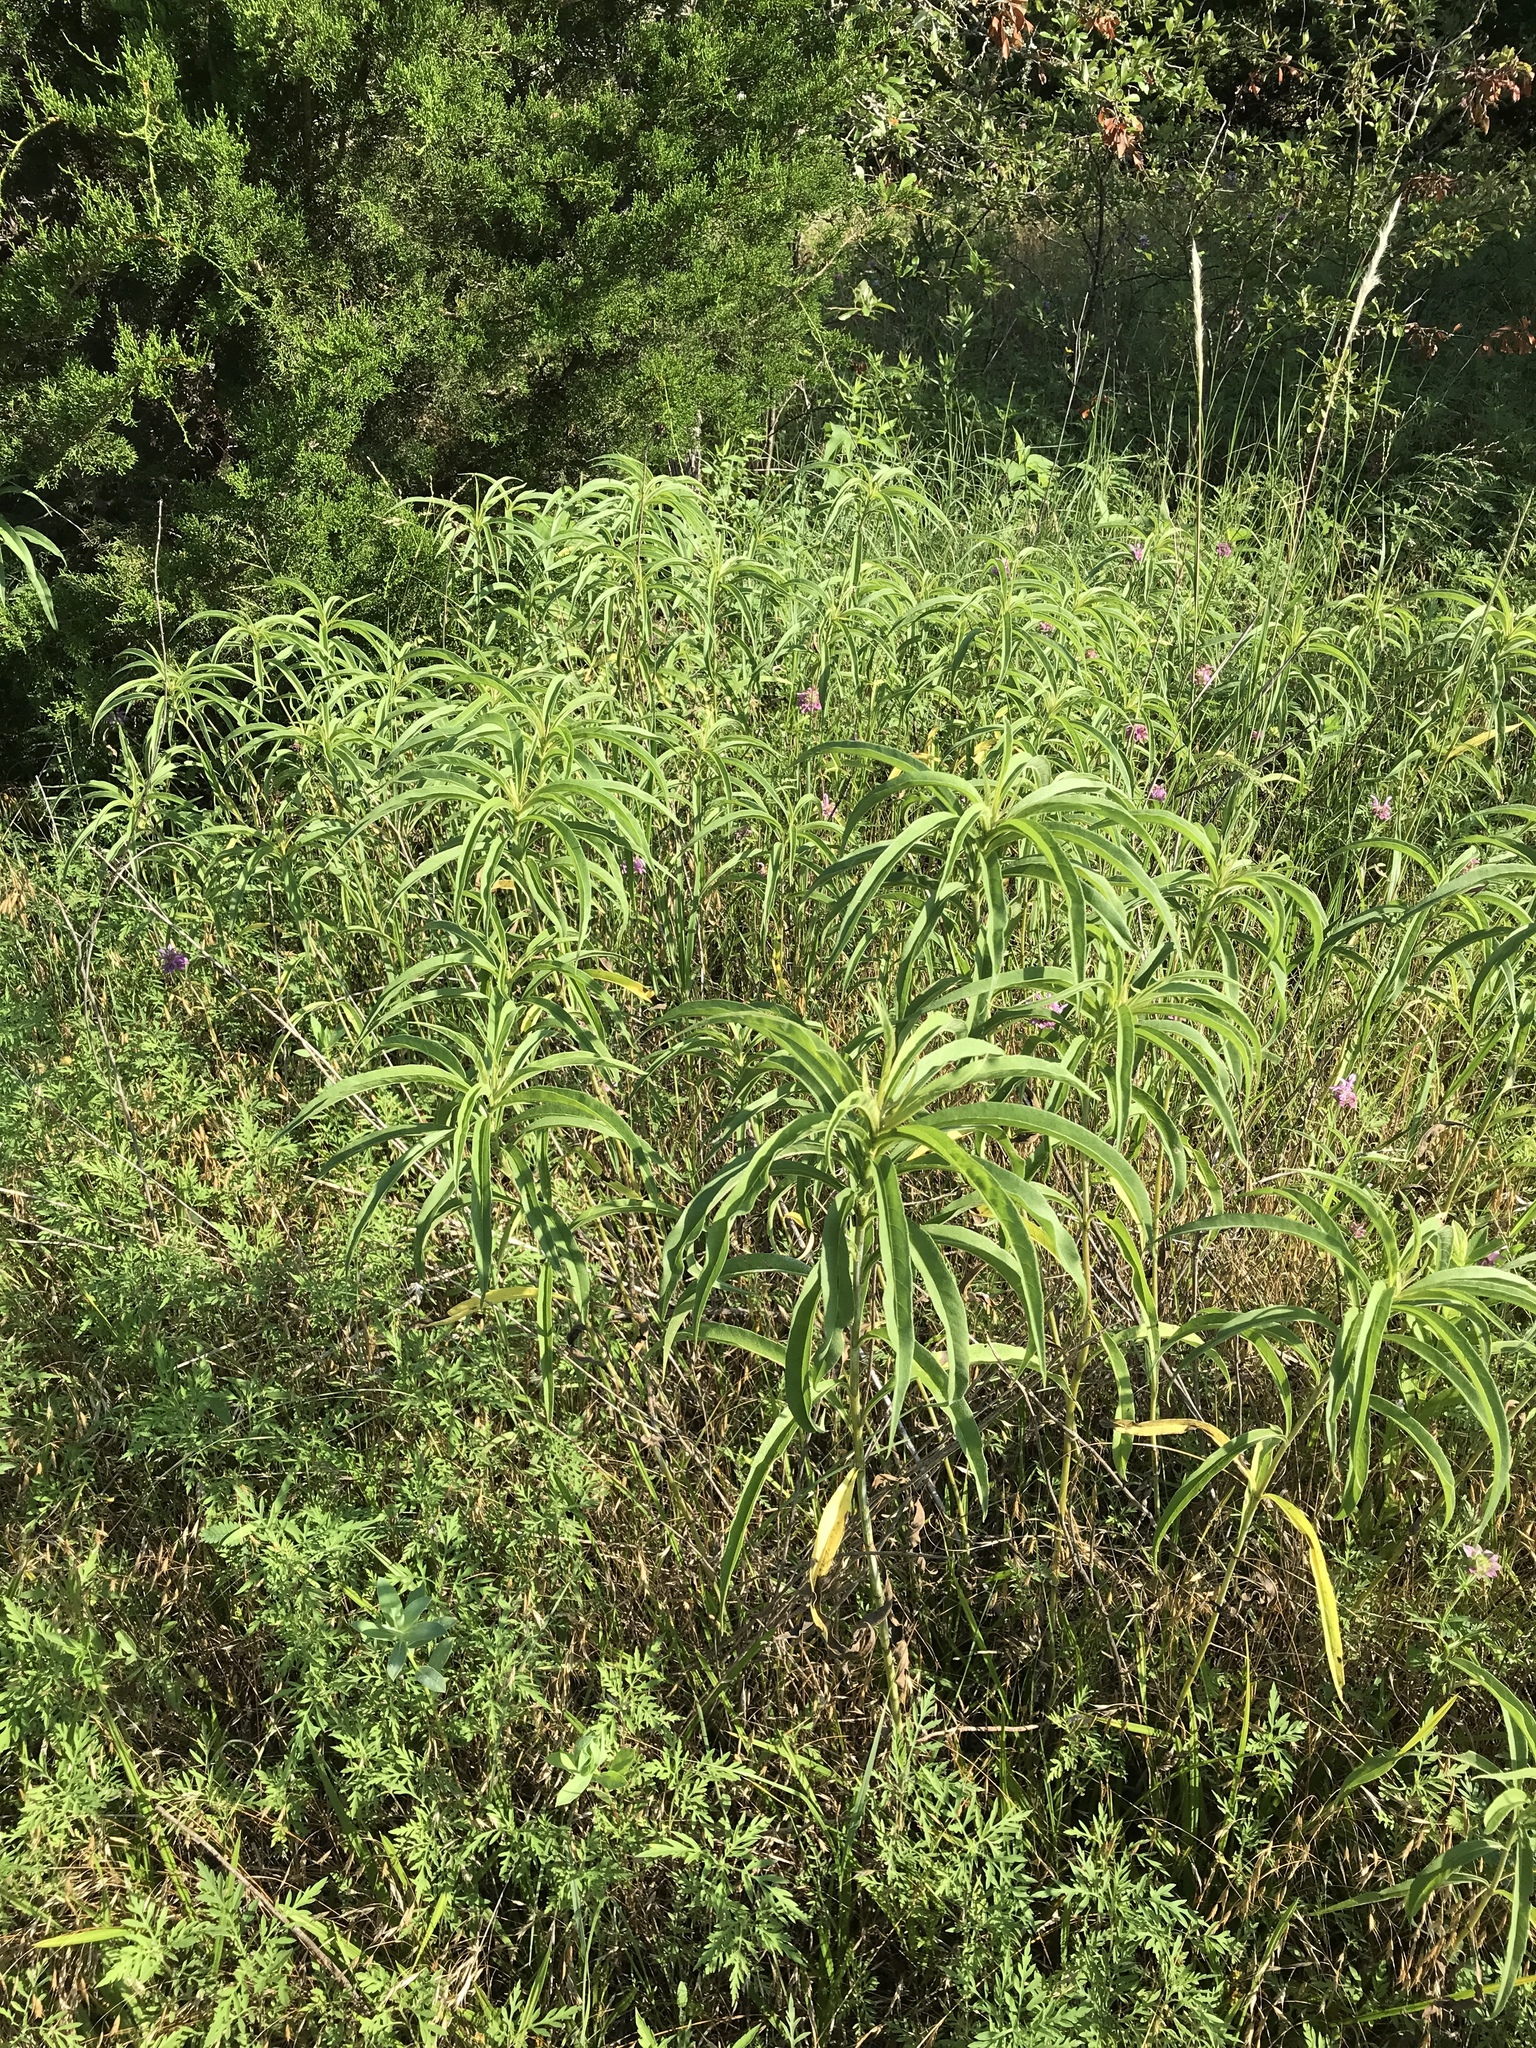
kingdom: Plantae
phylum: Tracheophyta
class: Magnoliopsida
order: Asterales
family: Asteraceae
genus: Helianthus
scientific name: Helianthus maximiliani
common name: Maximilian's sunflower
